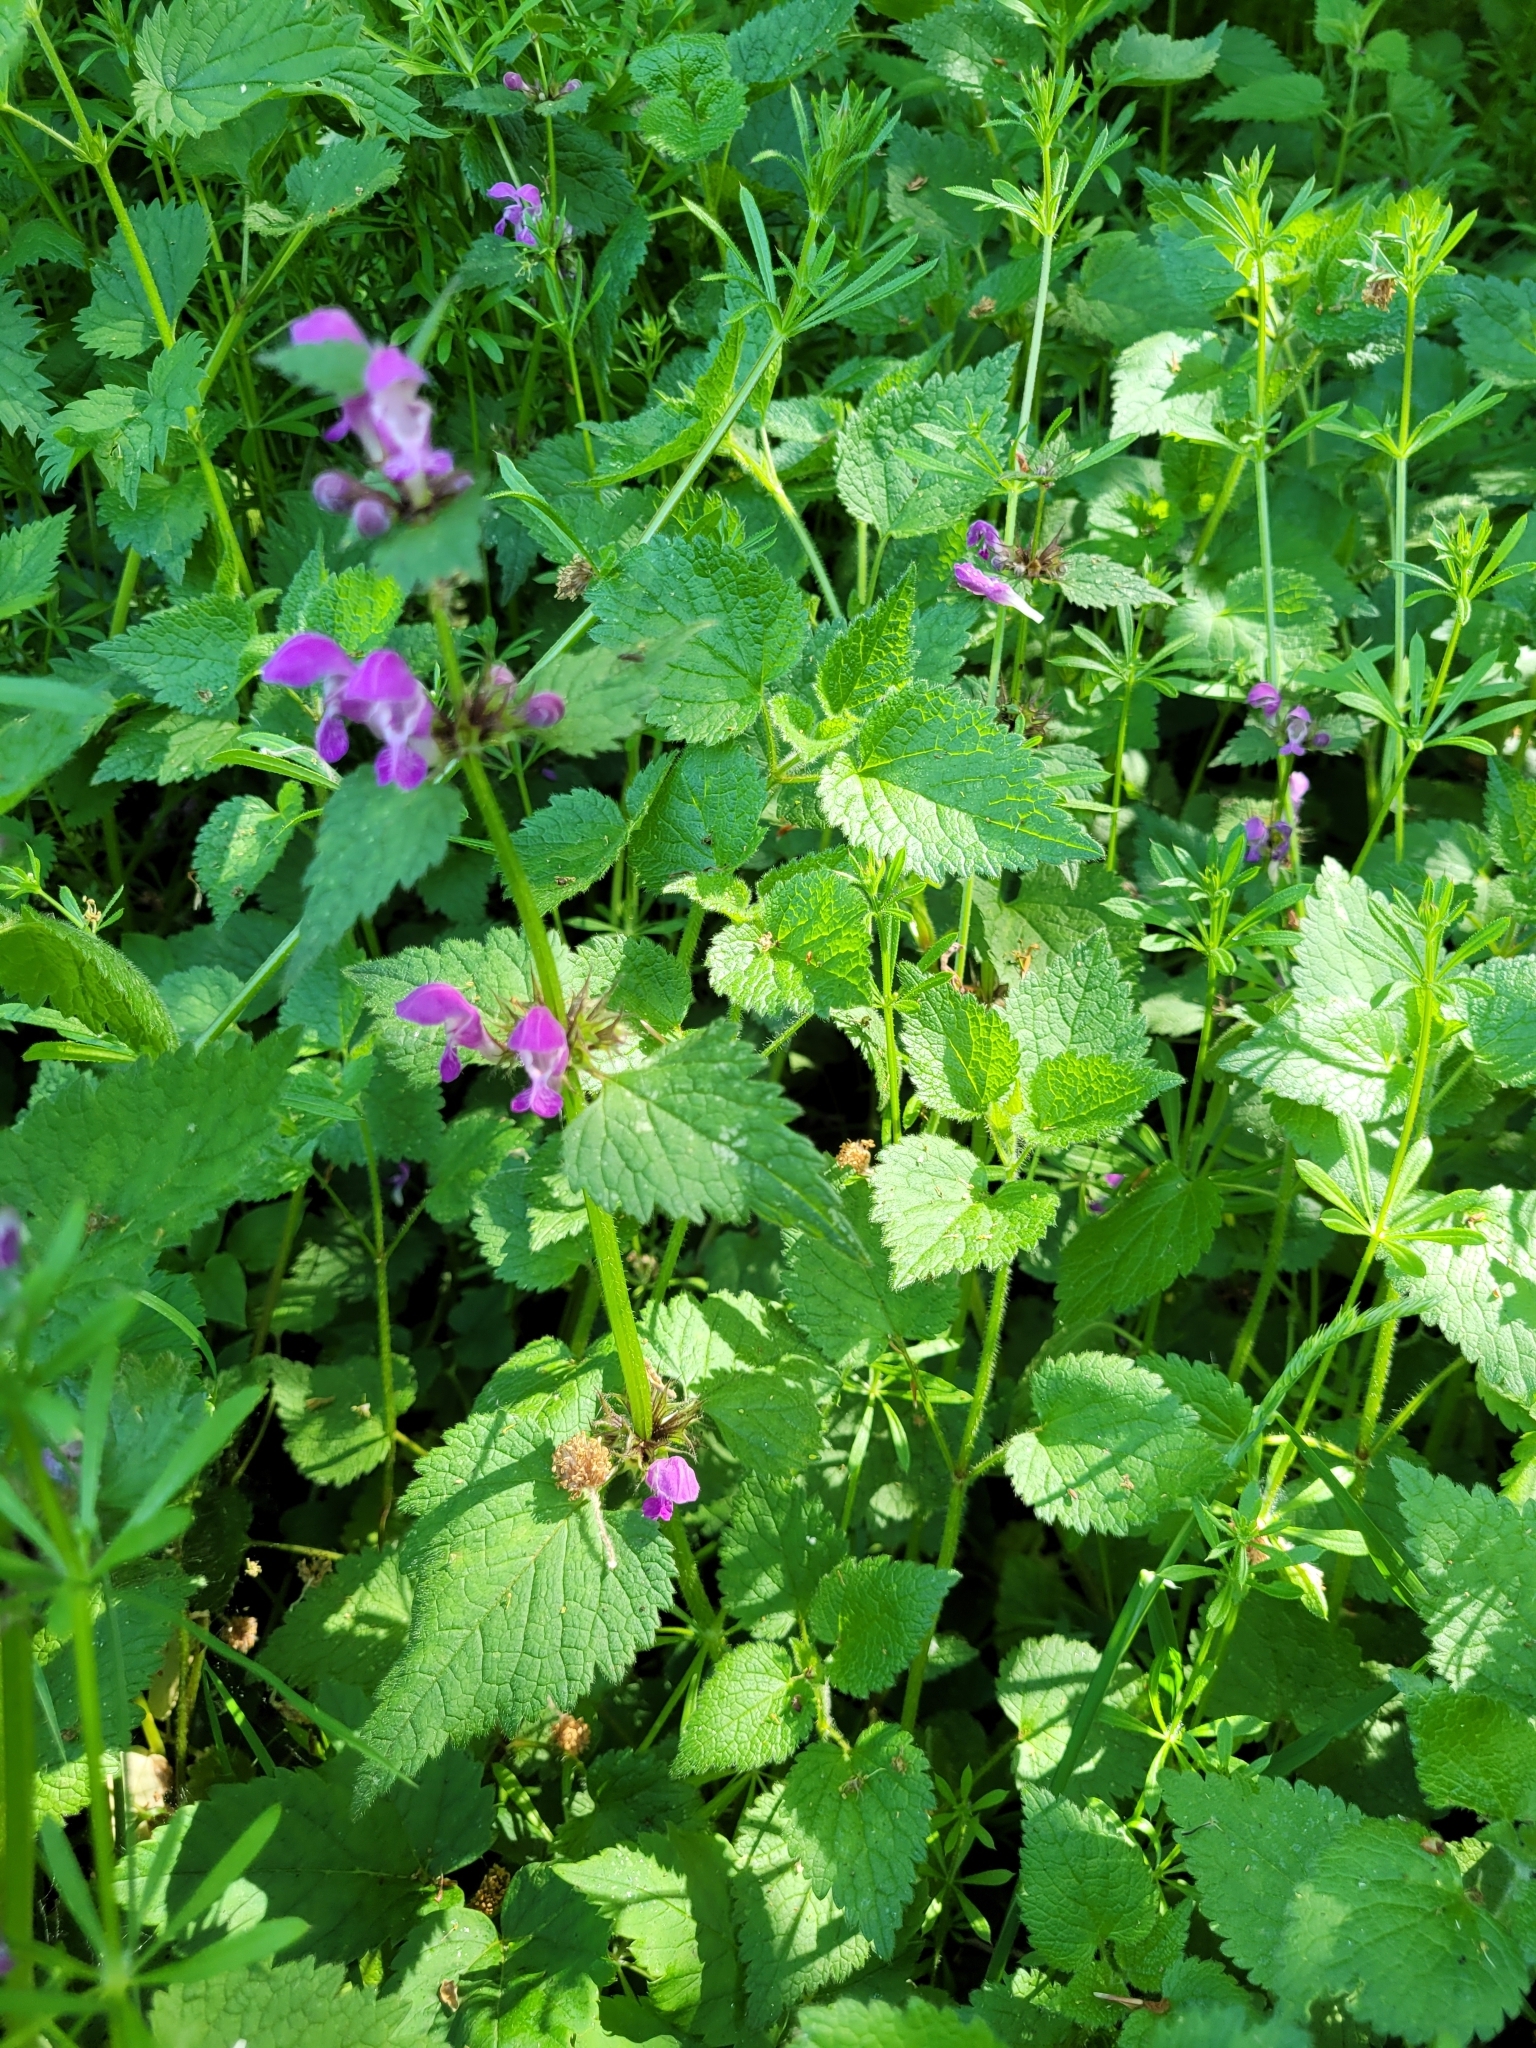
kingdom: Plantae
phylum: Tracheophyta
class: Magnoliopsida
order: Lamiales
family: Lamiaceae
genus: Lamium
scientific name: Lamium maculatum
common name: Spotted dead-nettle
